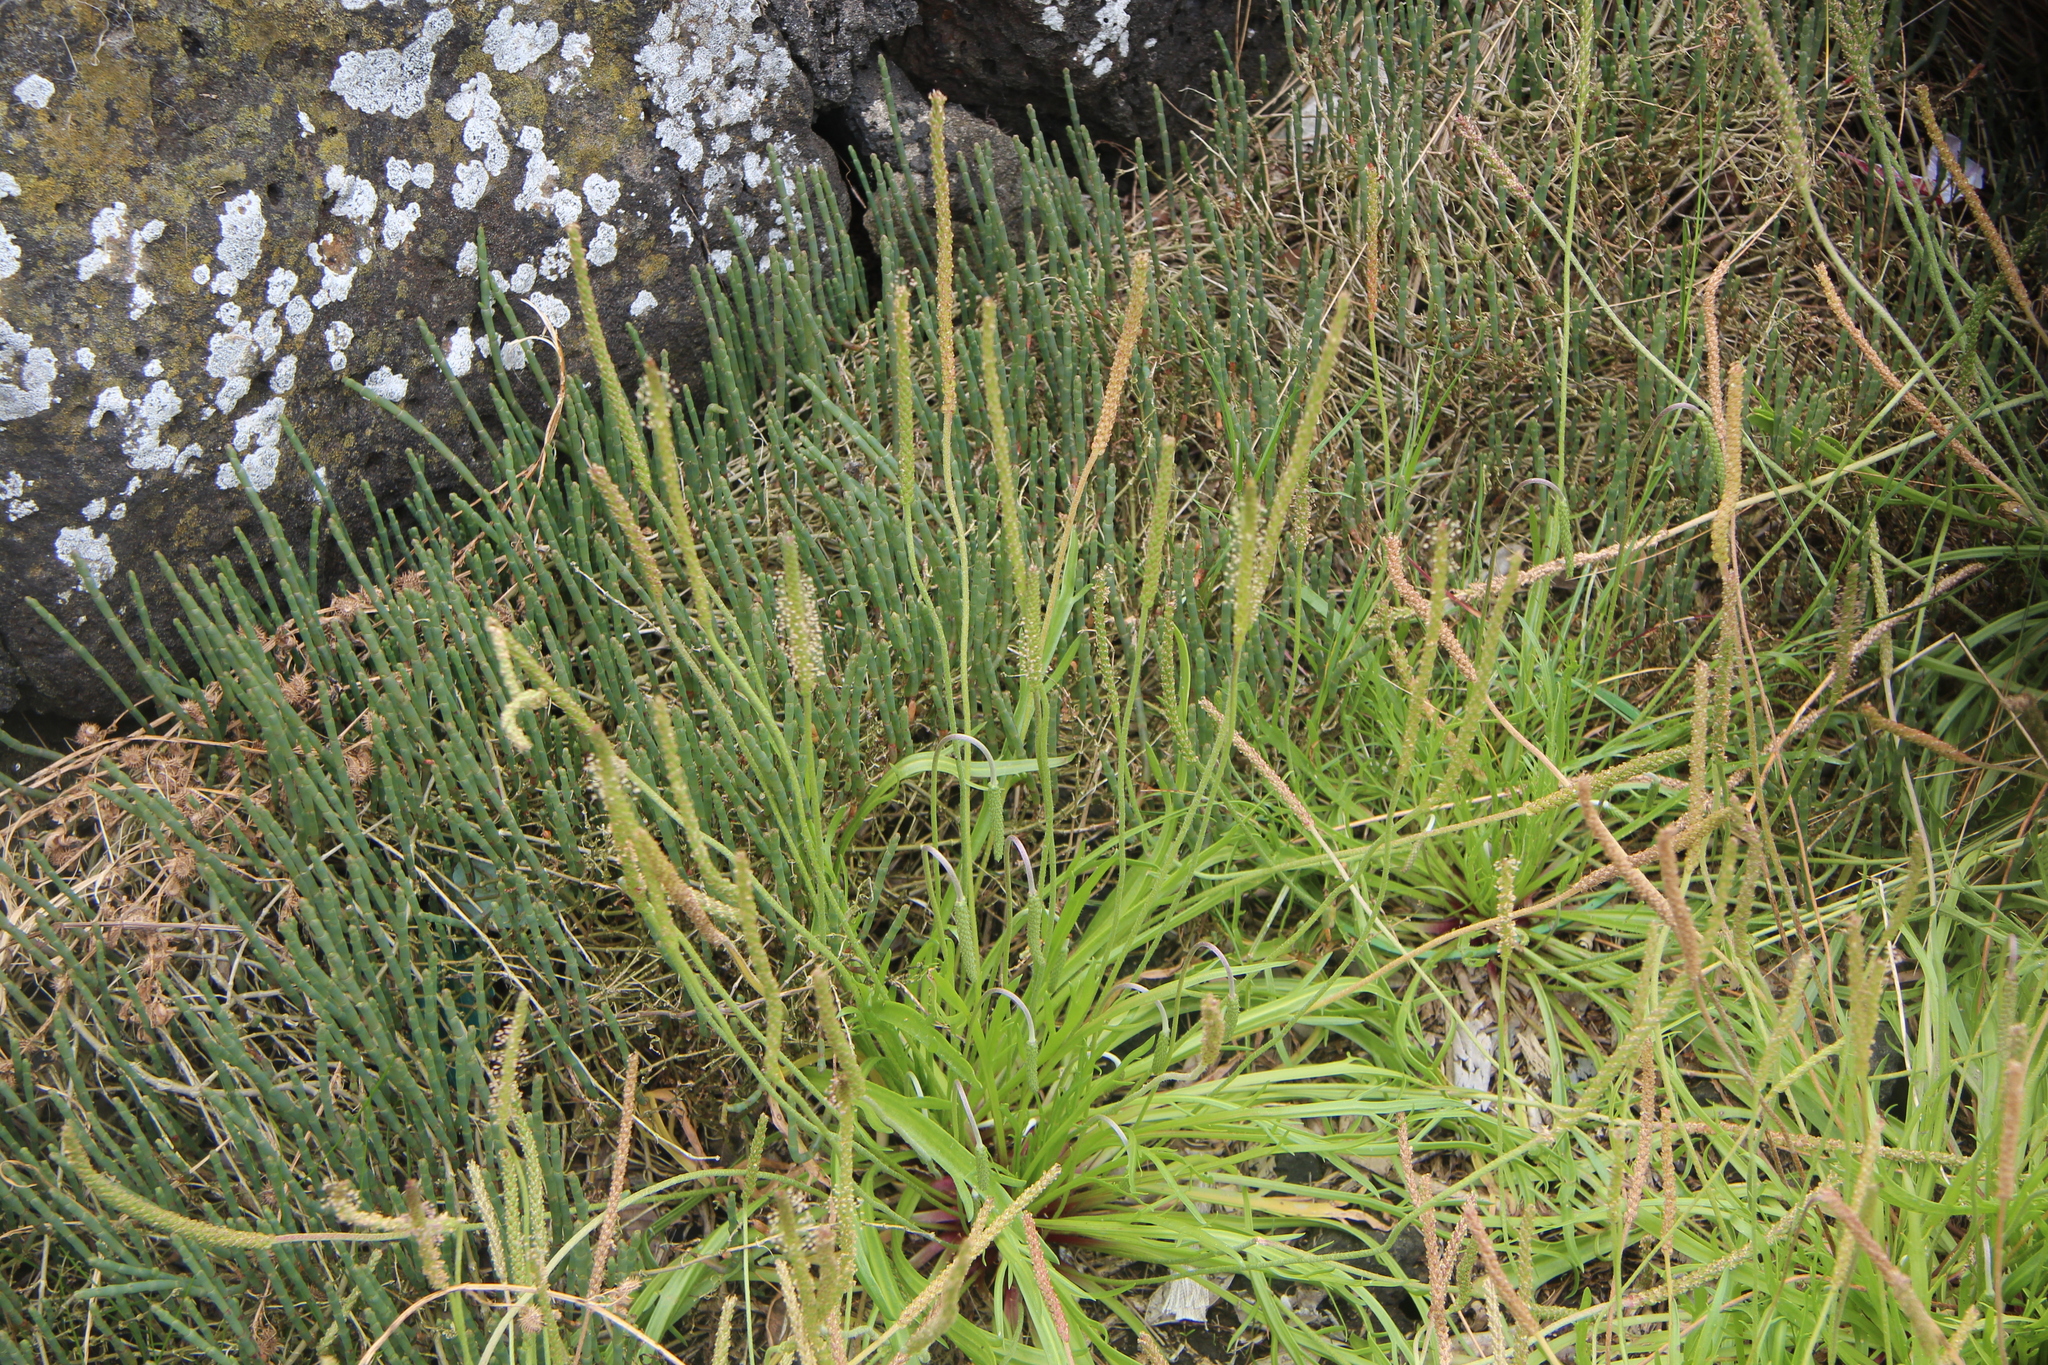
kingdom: Plantae
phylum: Tracheophyta
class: Magnoliopsida
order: Lamiales
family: Plantaginaceae
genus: Plantago
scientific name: Plantago coronopus
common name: Buck's-horn plantain
